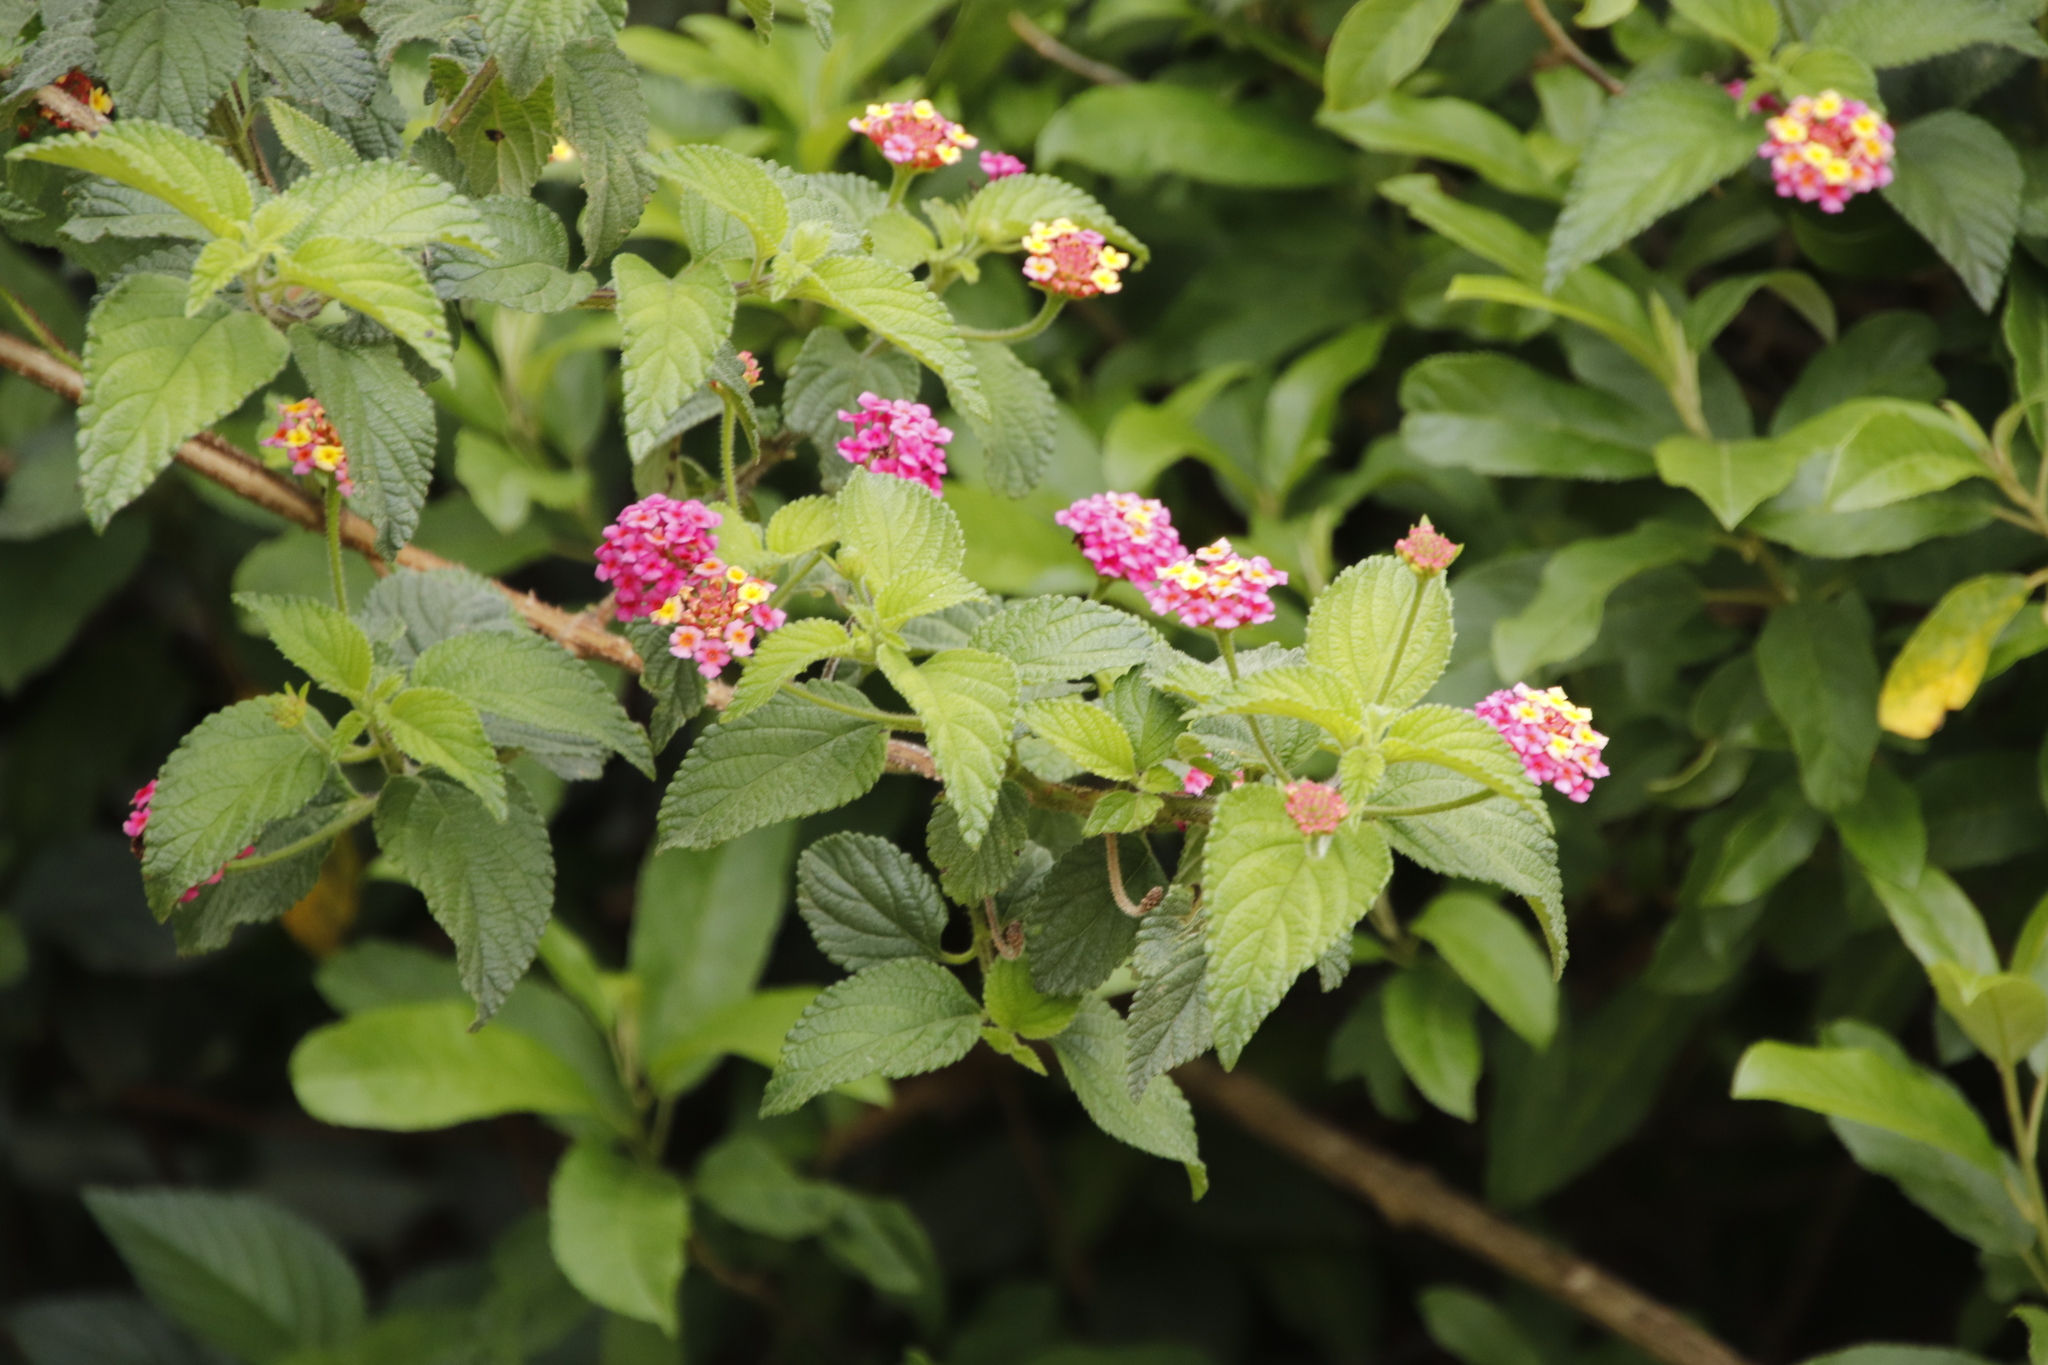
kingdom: Plantae
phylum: Tracheophyta
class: Magnoliopsida
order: Lamiales
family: Verbenaceae
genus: Lantana
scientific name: Lantana camara
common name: Lantana
